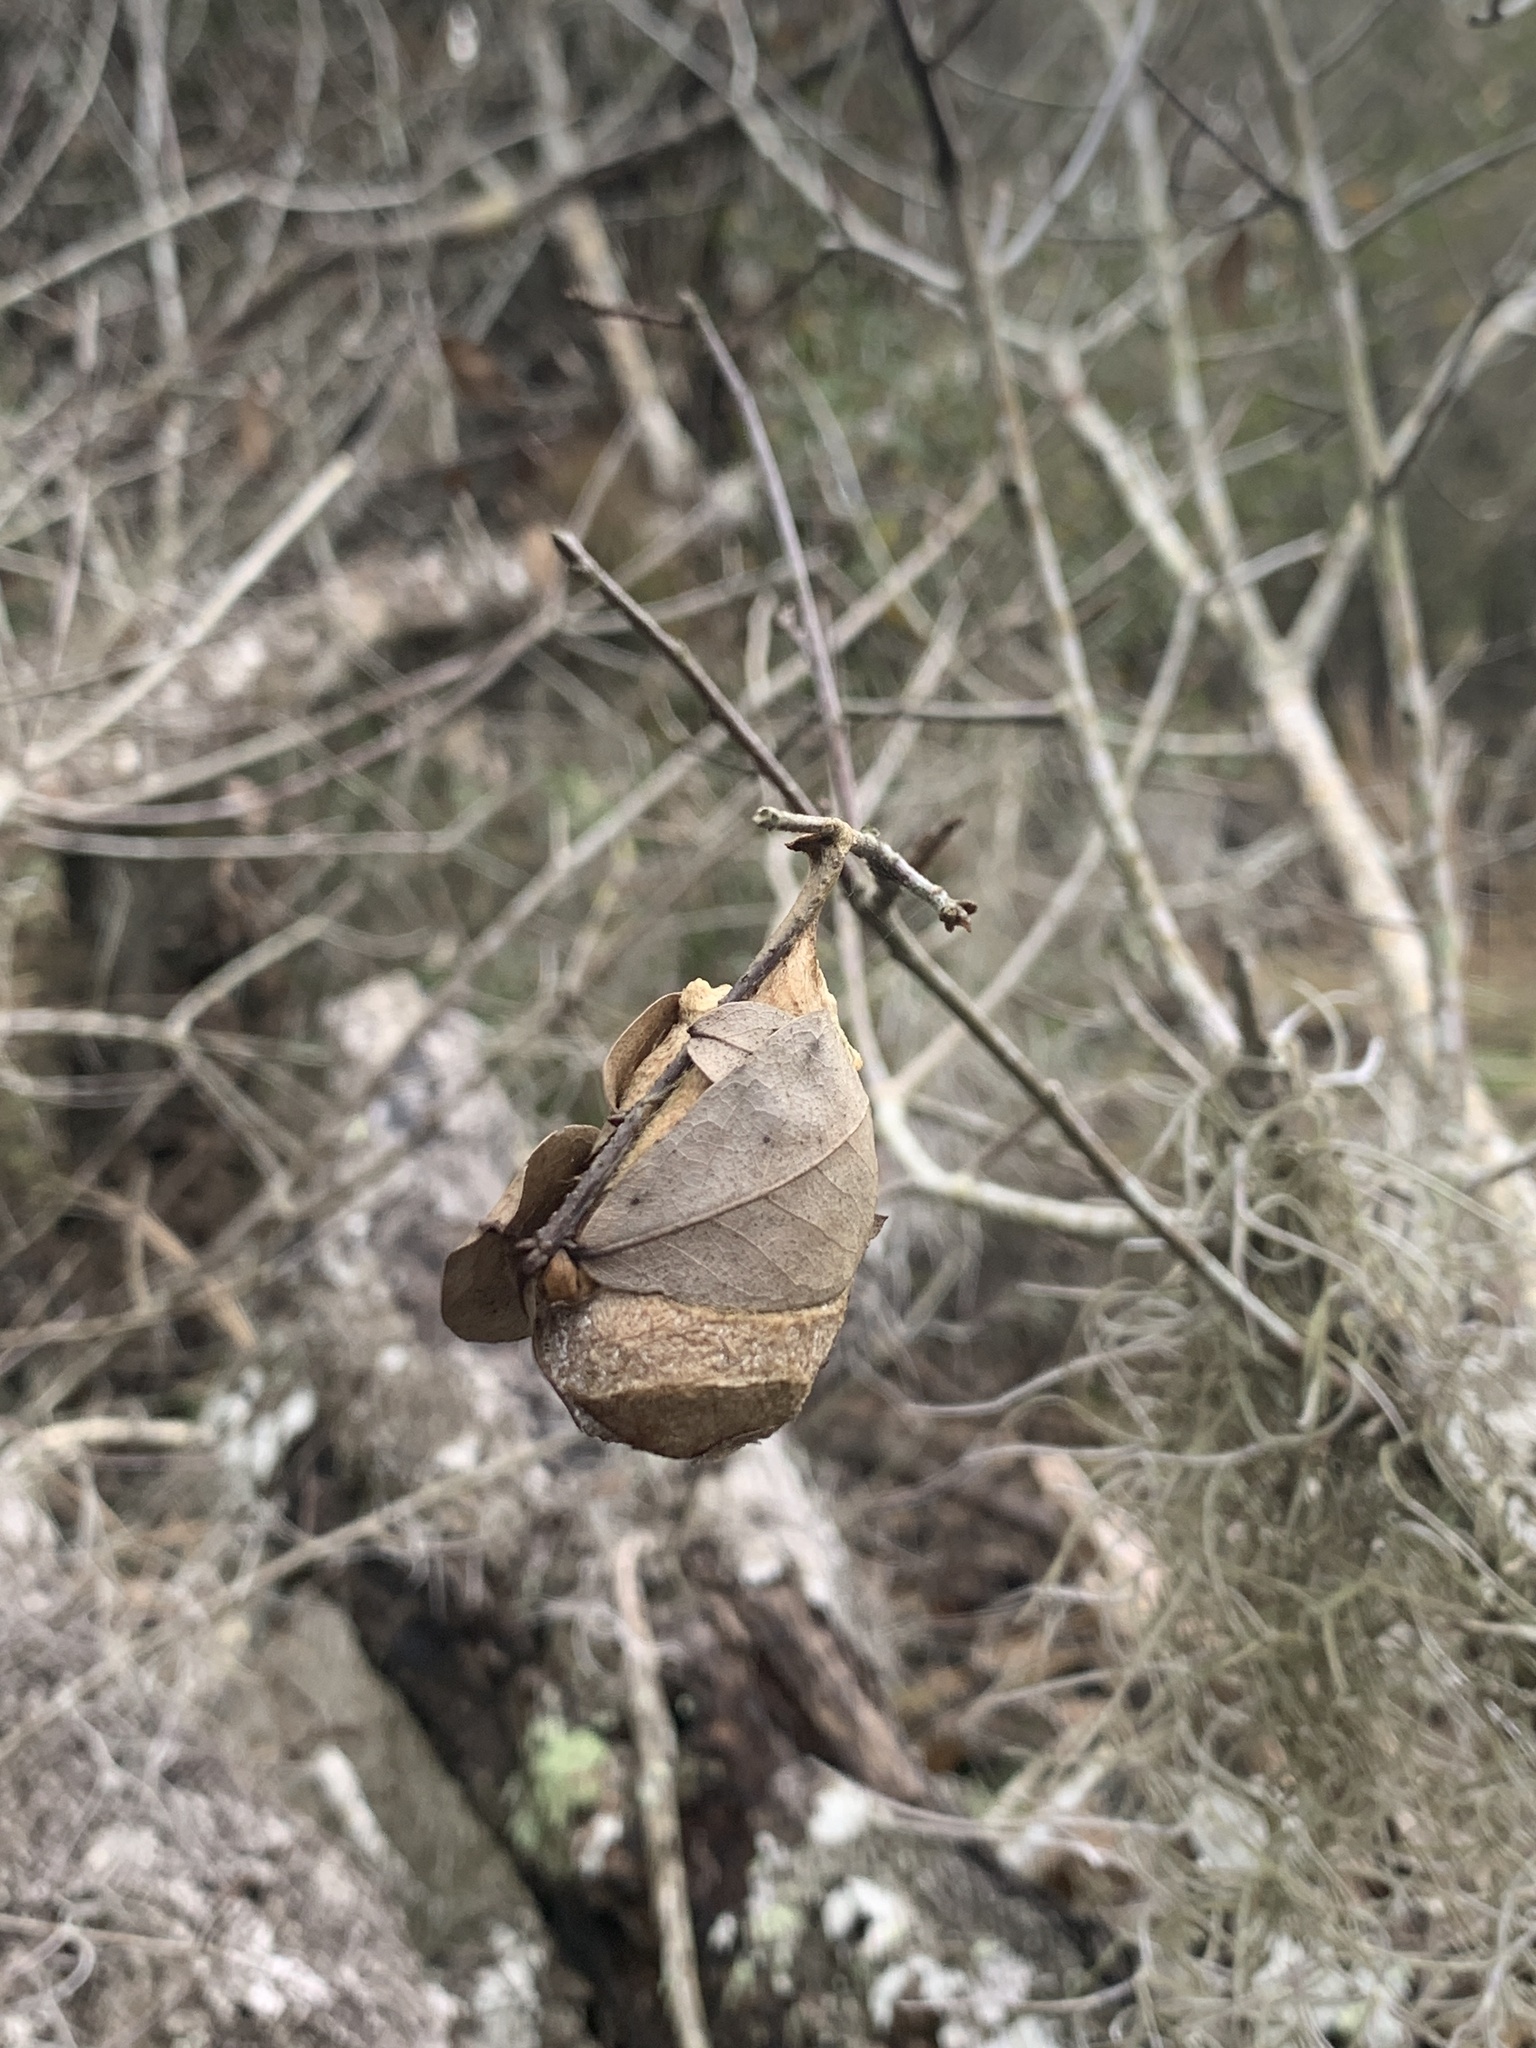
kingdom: Animalia
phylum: Arthropoda
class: Insecta
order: Lepidoptera
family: Saturniidae
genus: Antheraea
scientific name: Antheraea polyphemus
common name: Polyphemus moth
